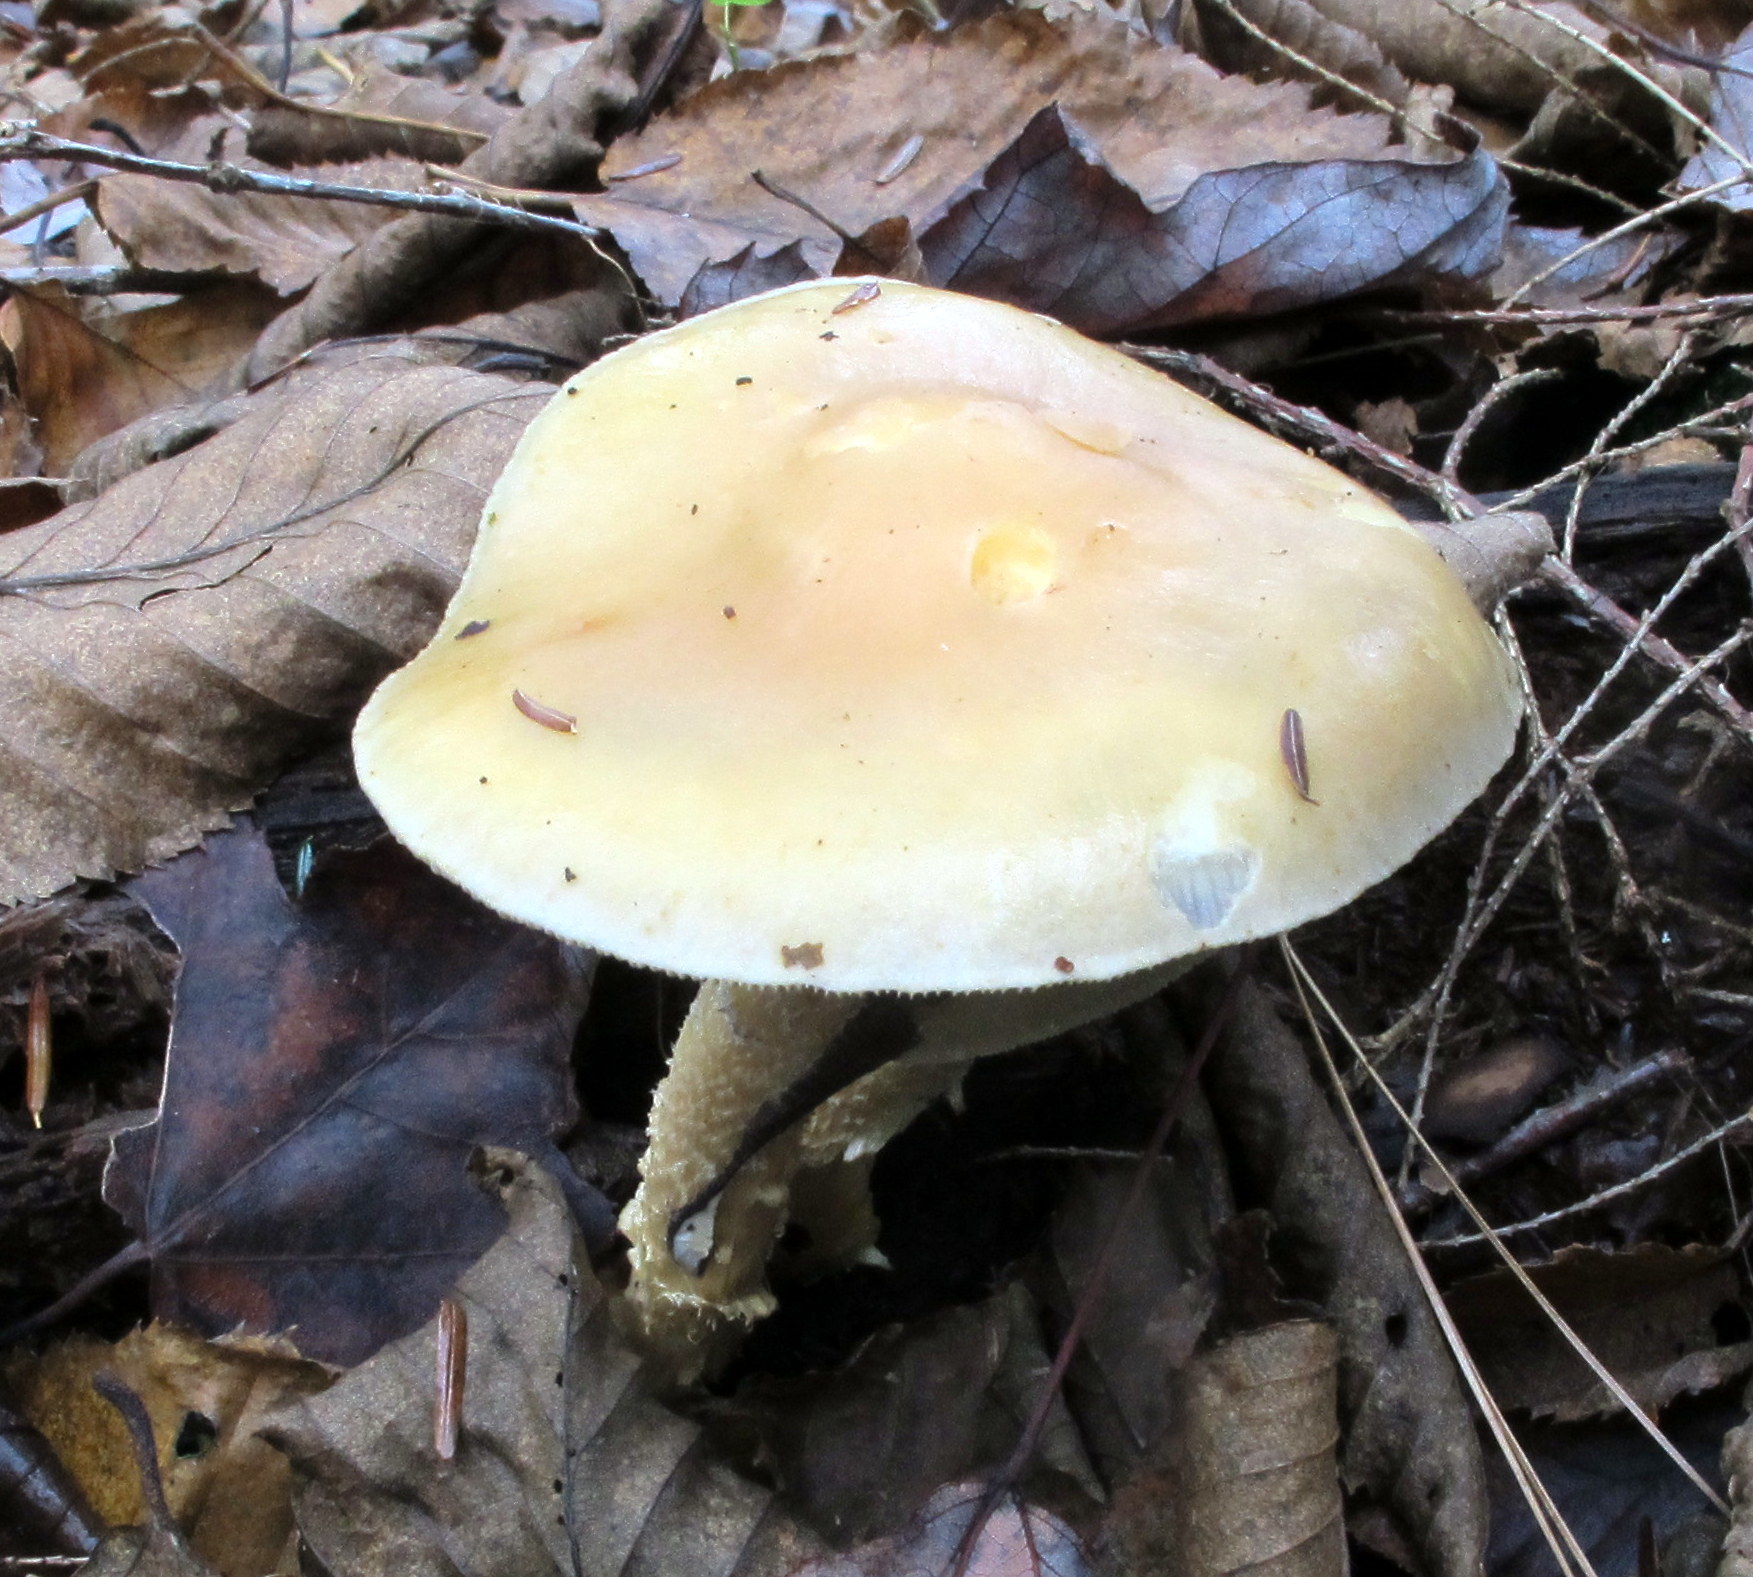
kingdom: Fungi
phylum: Basidiomycota
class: Agaricomycetes
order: Agaricales
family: Strophariaceae
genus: Stropharia
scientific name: Stropharia
